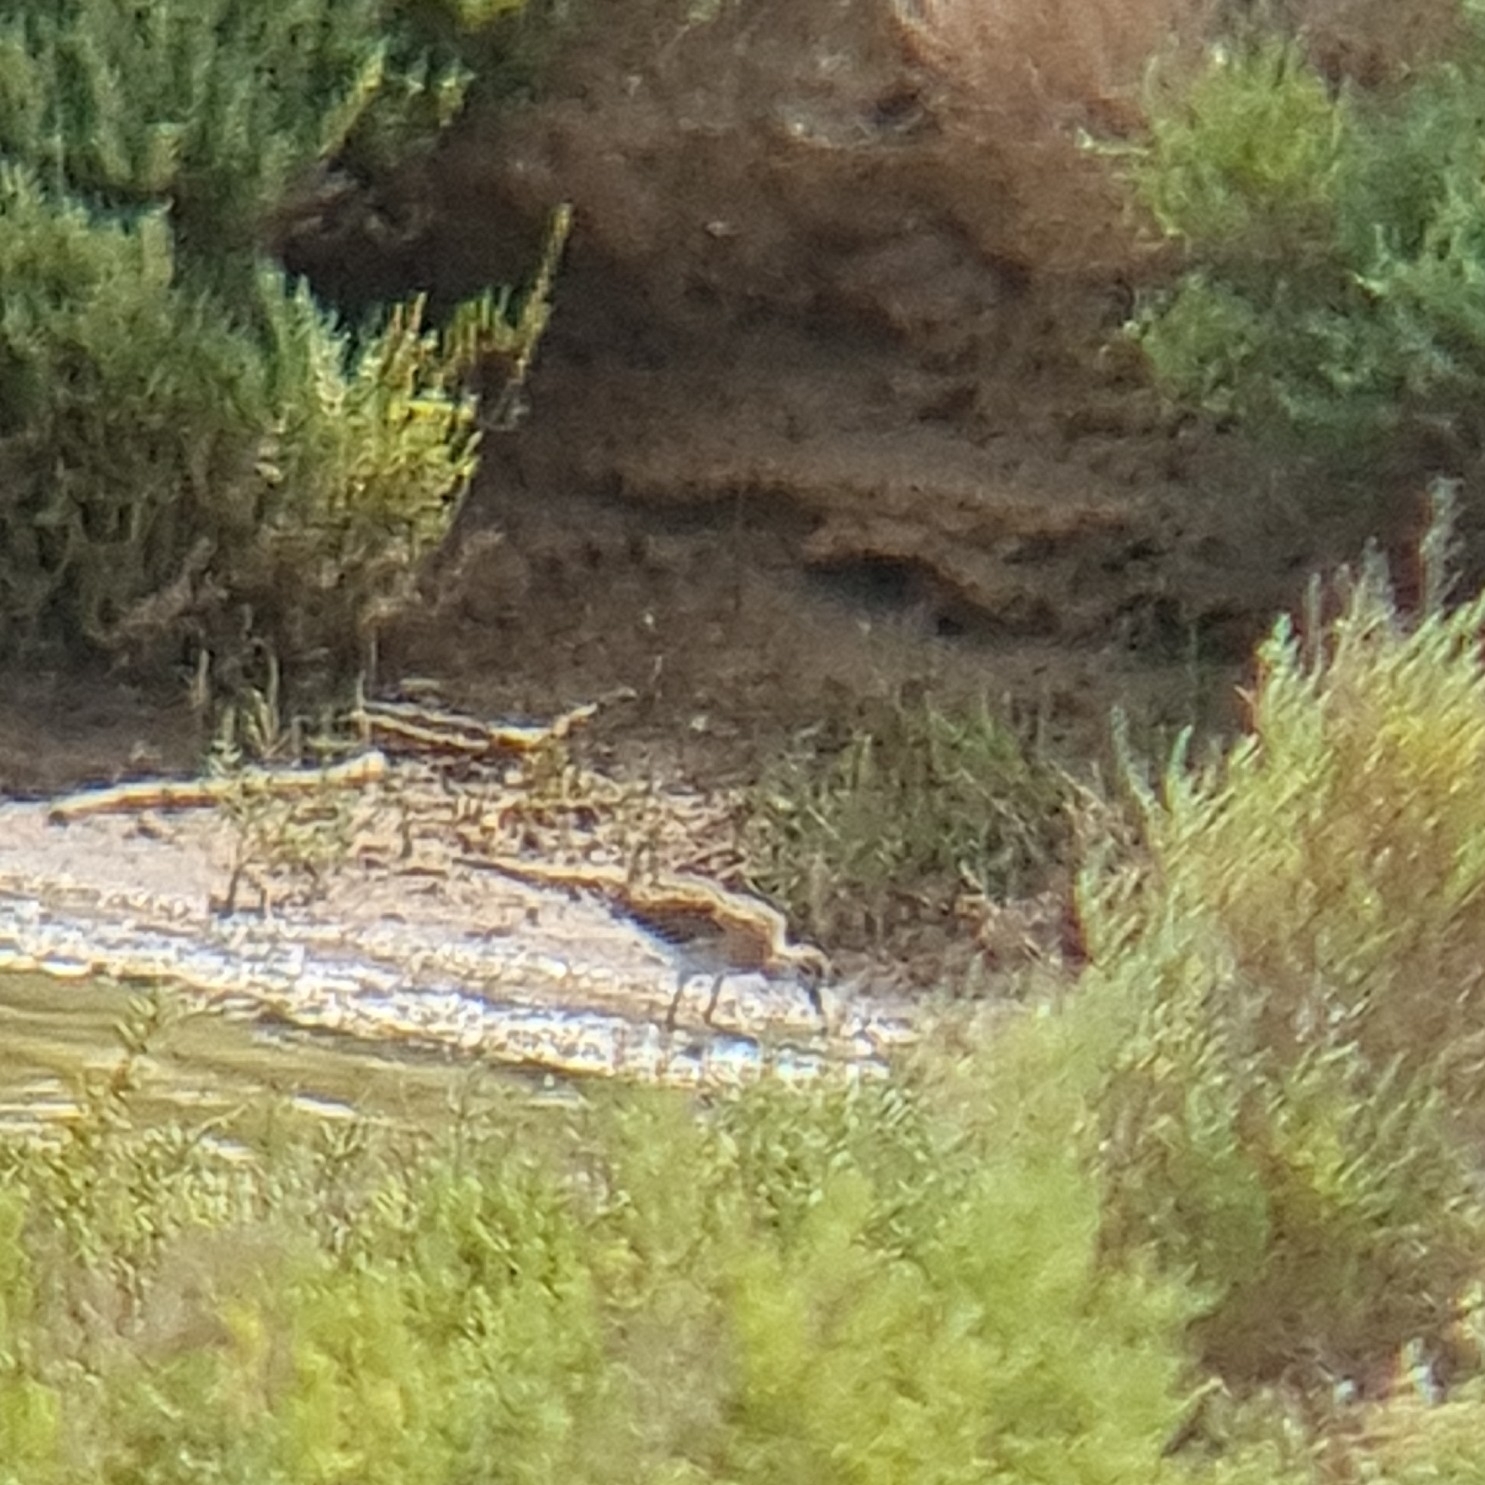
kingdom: Animalia
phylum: Chordata
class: Aves
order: Charadriiformes
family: Scolopacidae
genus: Calidris
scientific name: Calidris pugnax
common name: Ruff
